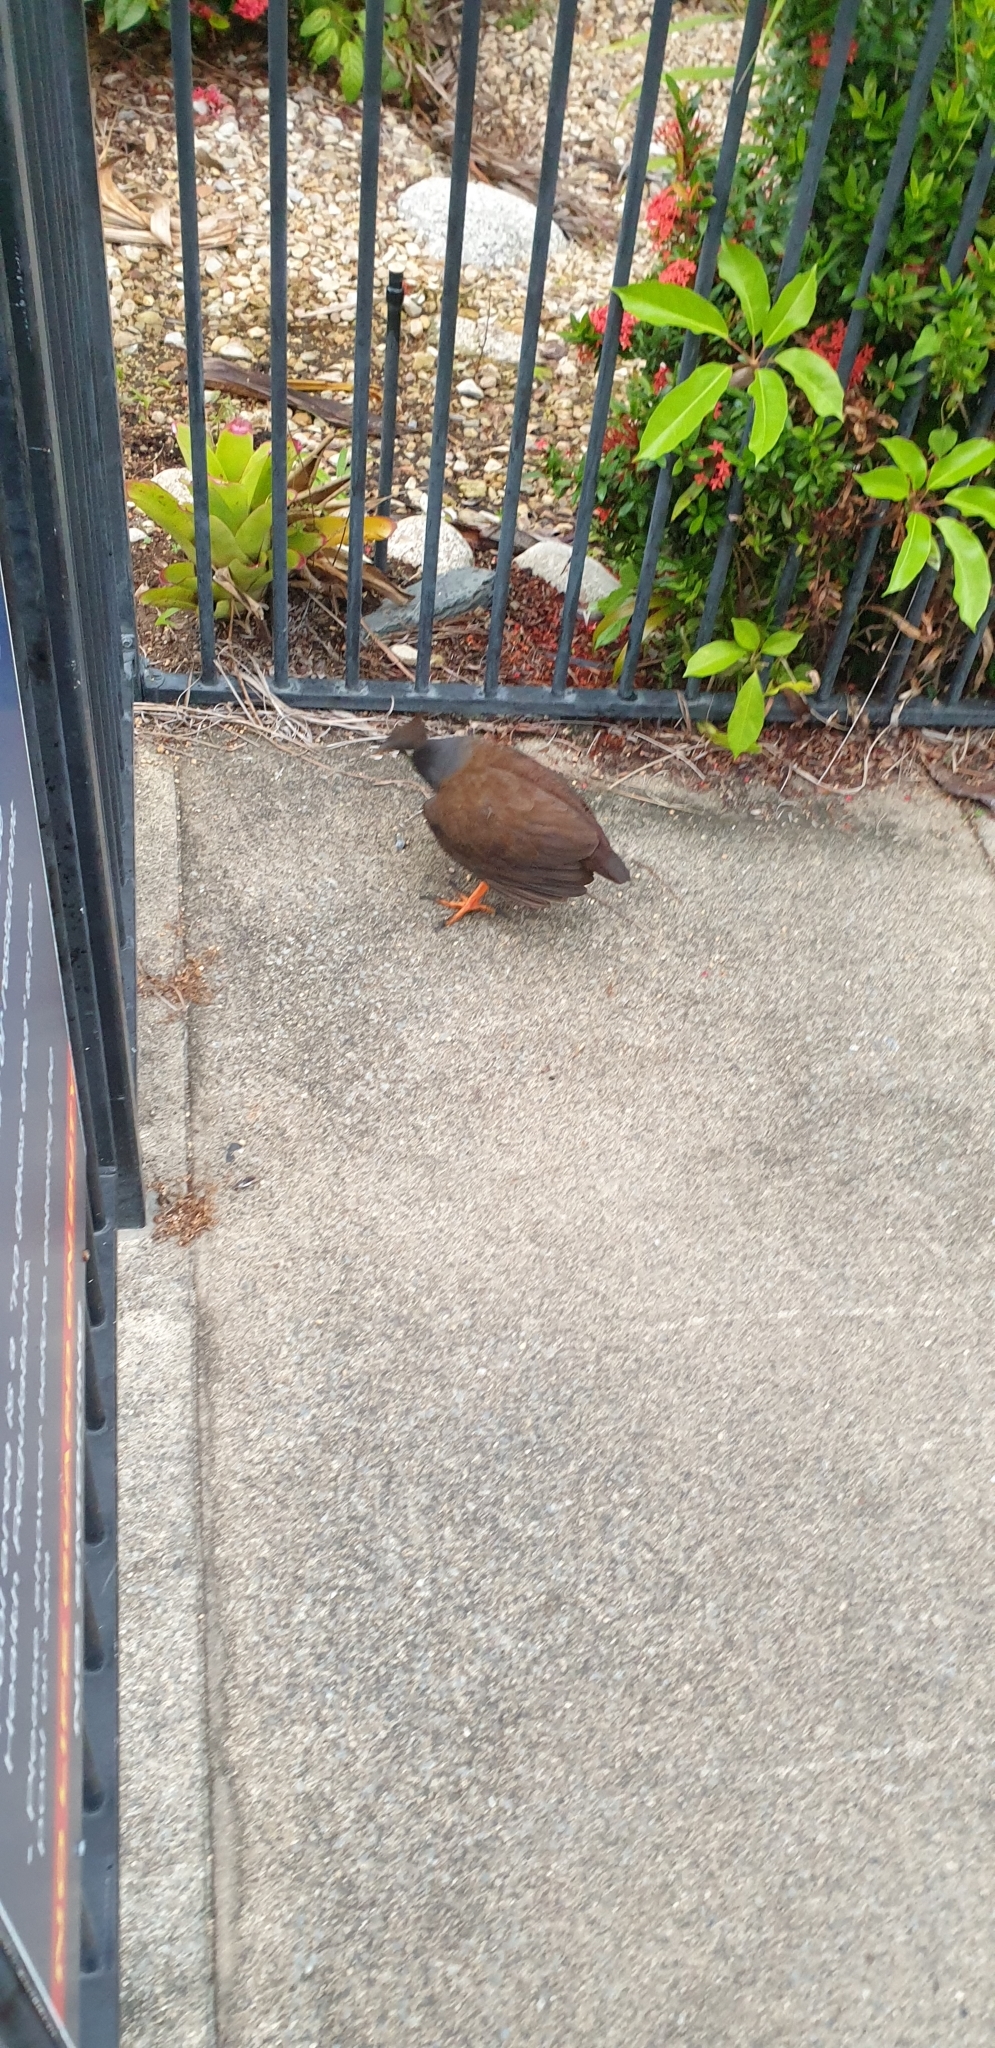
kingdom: Animalia
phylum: Chordata
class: Aves
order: Galliformes
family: Megapodiidae
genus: Megapodius
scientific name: Megapodius reinwardt
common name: Orange-footed scrubfowl
